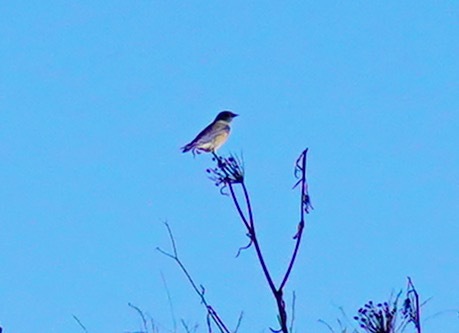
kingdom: Animalia
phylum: Chordata
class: Aves
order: Passeriformes
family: Turdidae
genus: Sialia
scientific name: Sialia mexicana
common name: Western bluebird
